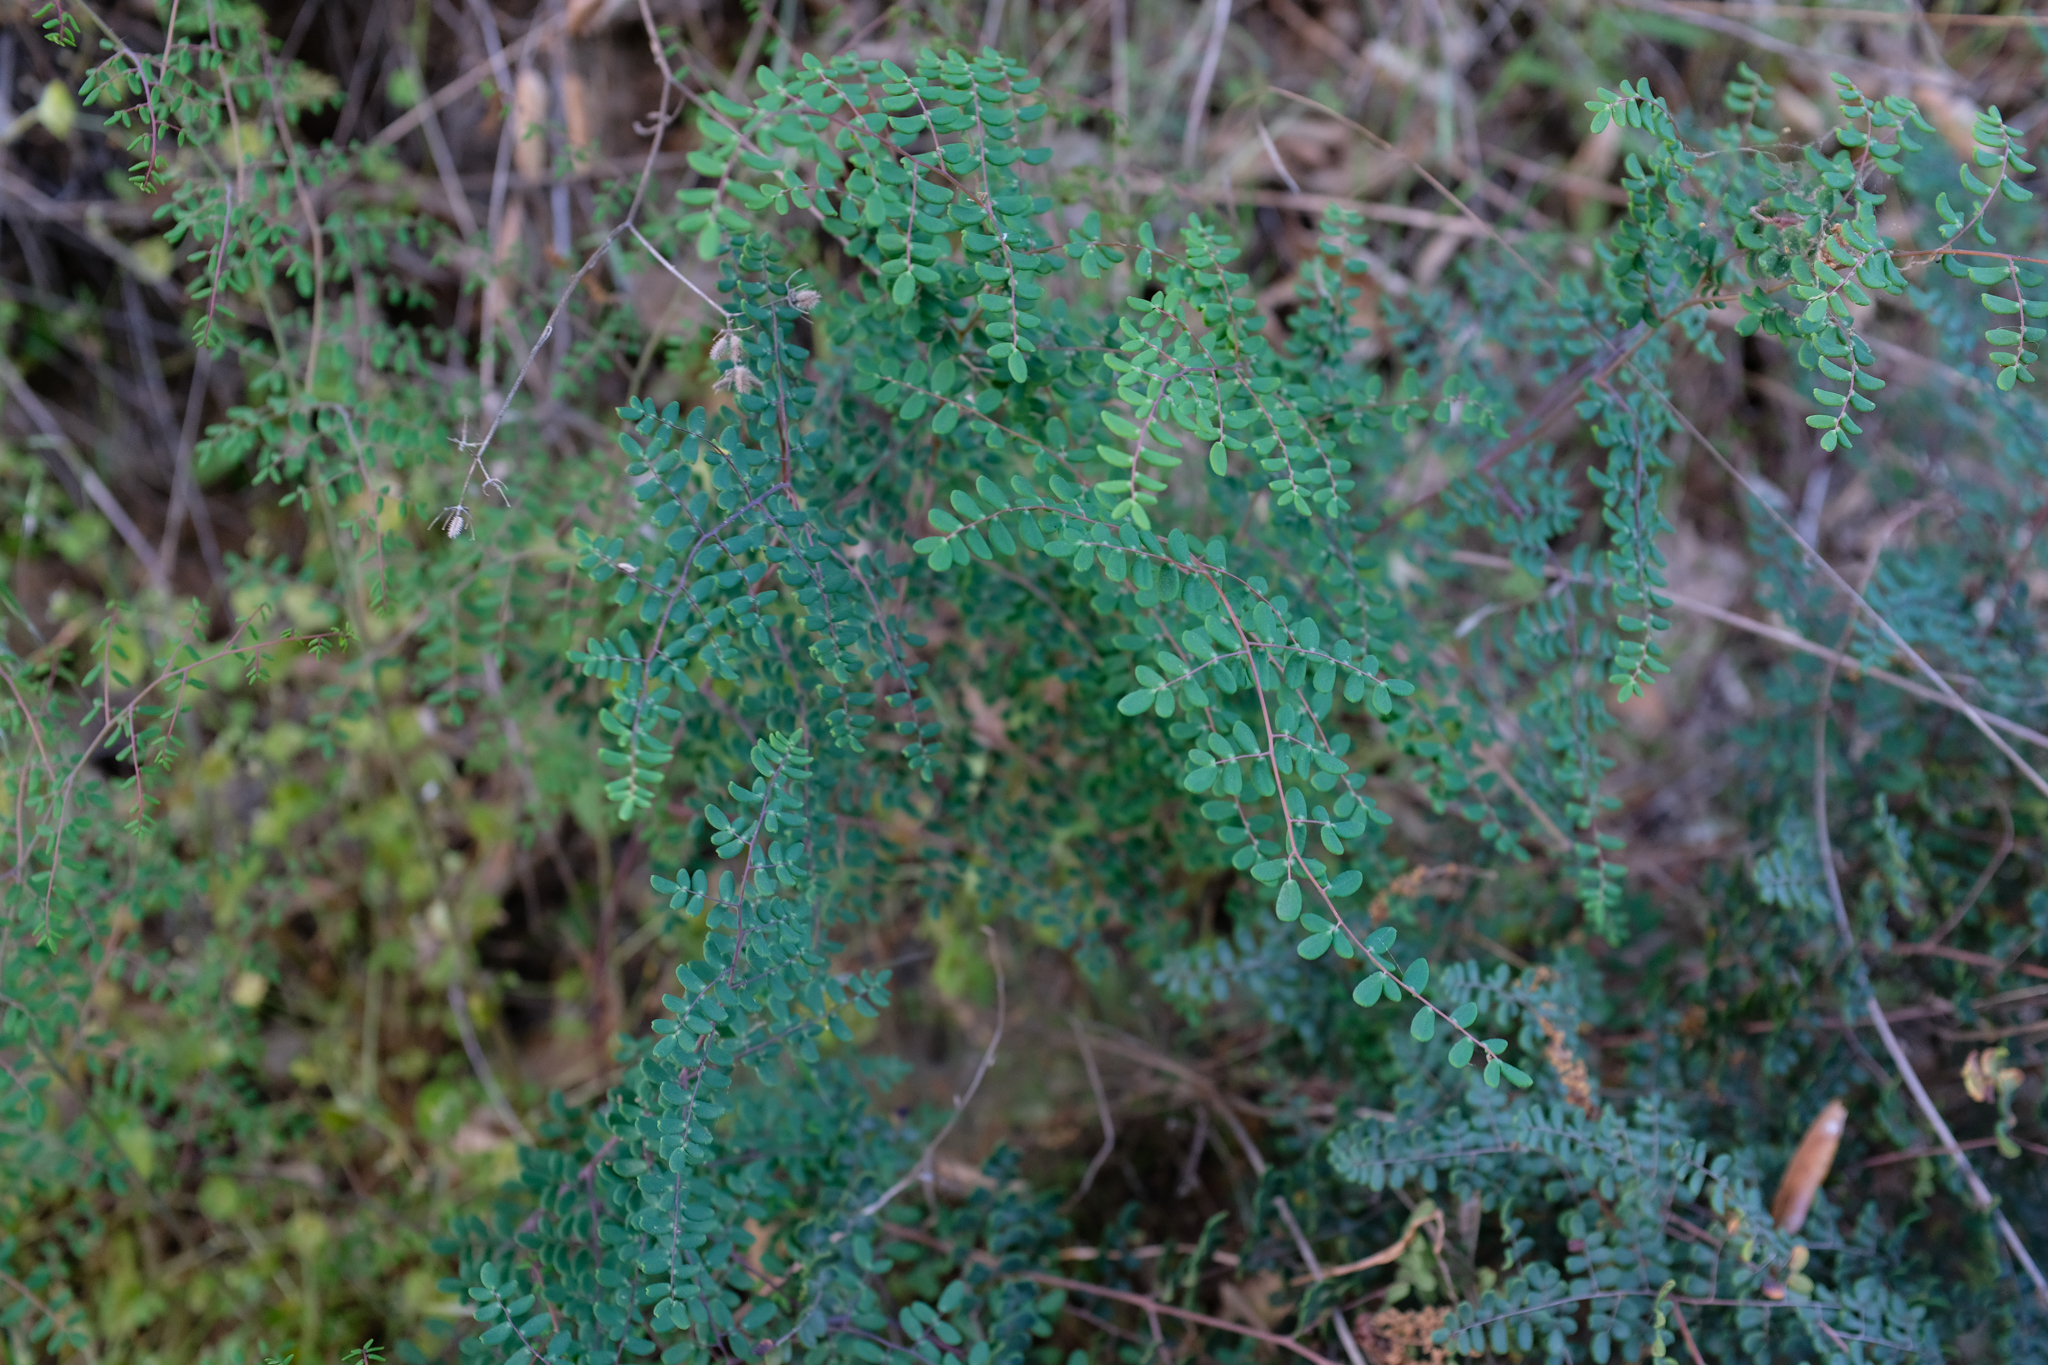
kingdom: Plantae
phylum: Tracheophyta
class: Polypodiopsida
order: Polypodiales
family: Pteridaceae
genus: Pellaea
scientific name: Pellaea andromedifolia
